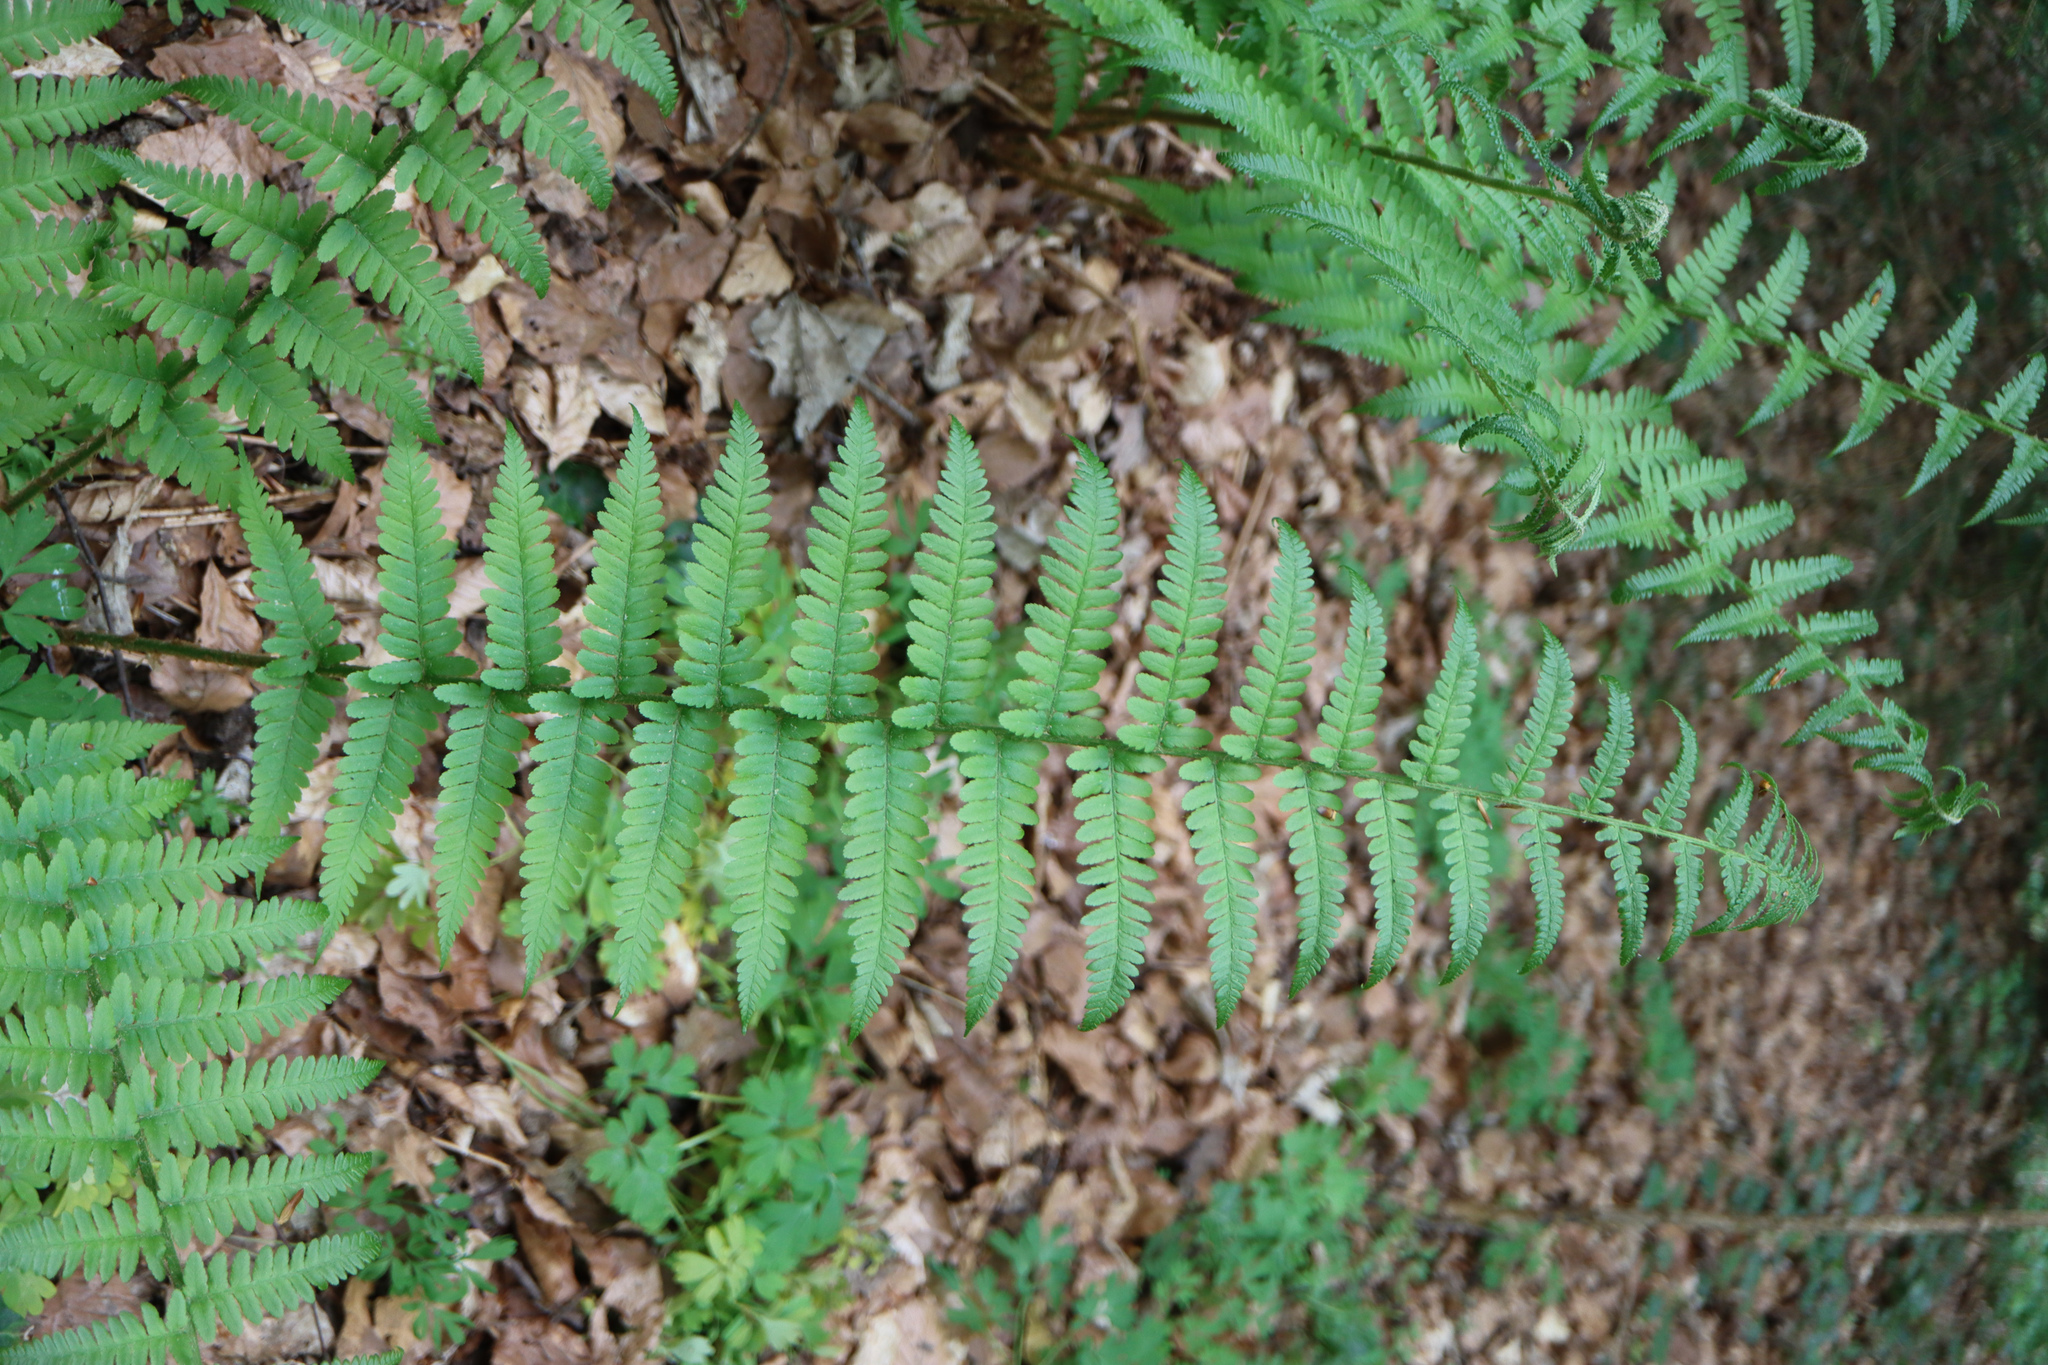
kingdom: Plantae
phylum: Tracheophyta
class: Polypodiopsida
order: Polypodiales
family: Dryopteridaceae
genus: Dryopteris
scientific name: Dryopteris filix-mas
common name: Male fern
